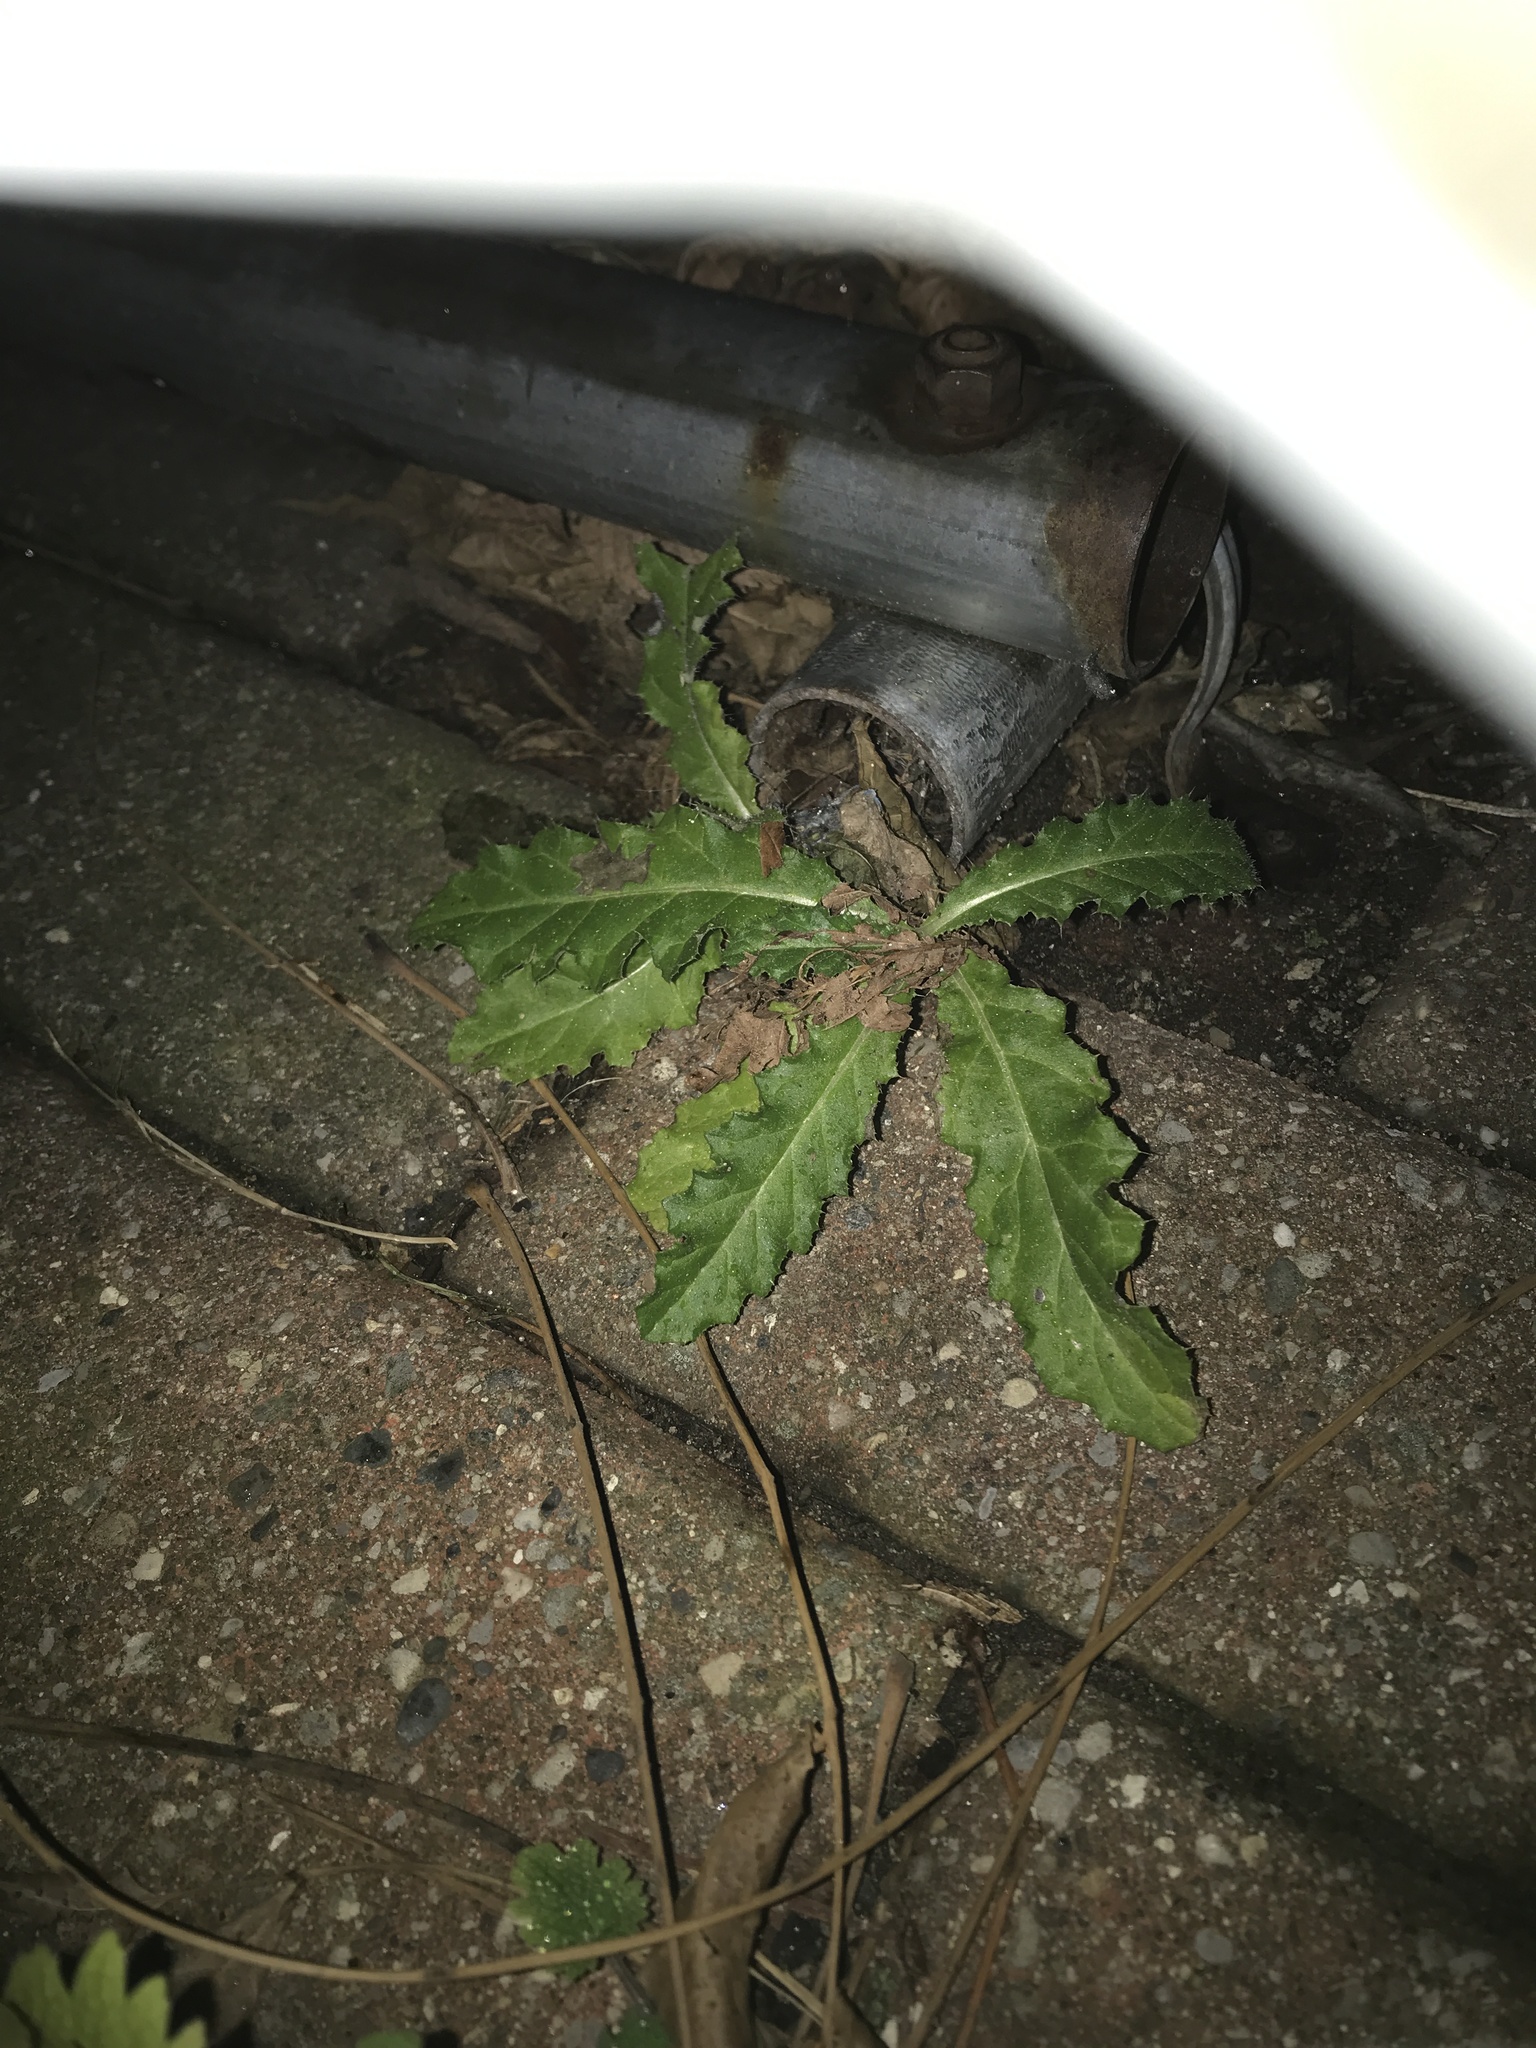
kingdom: Plantae
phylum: Tracheophyta
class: Magnoliopsida
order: Asterales
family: Asteraceae
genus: Cirsium
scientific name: Cirsium arvense
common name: Creeping thistle
